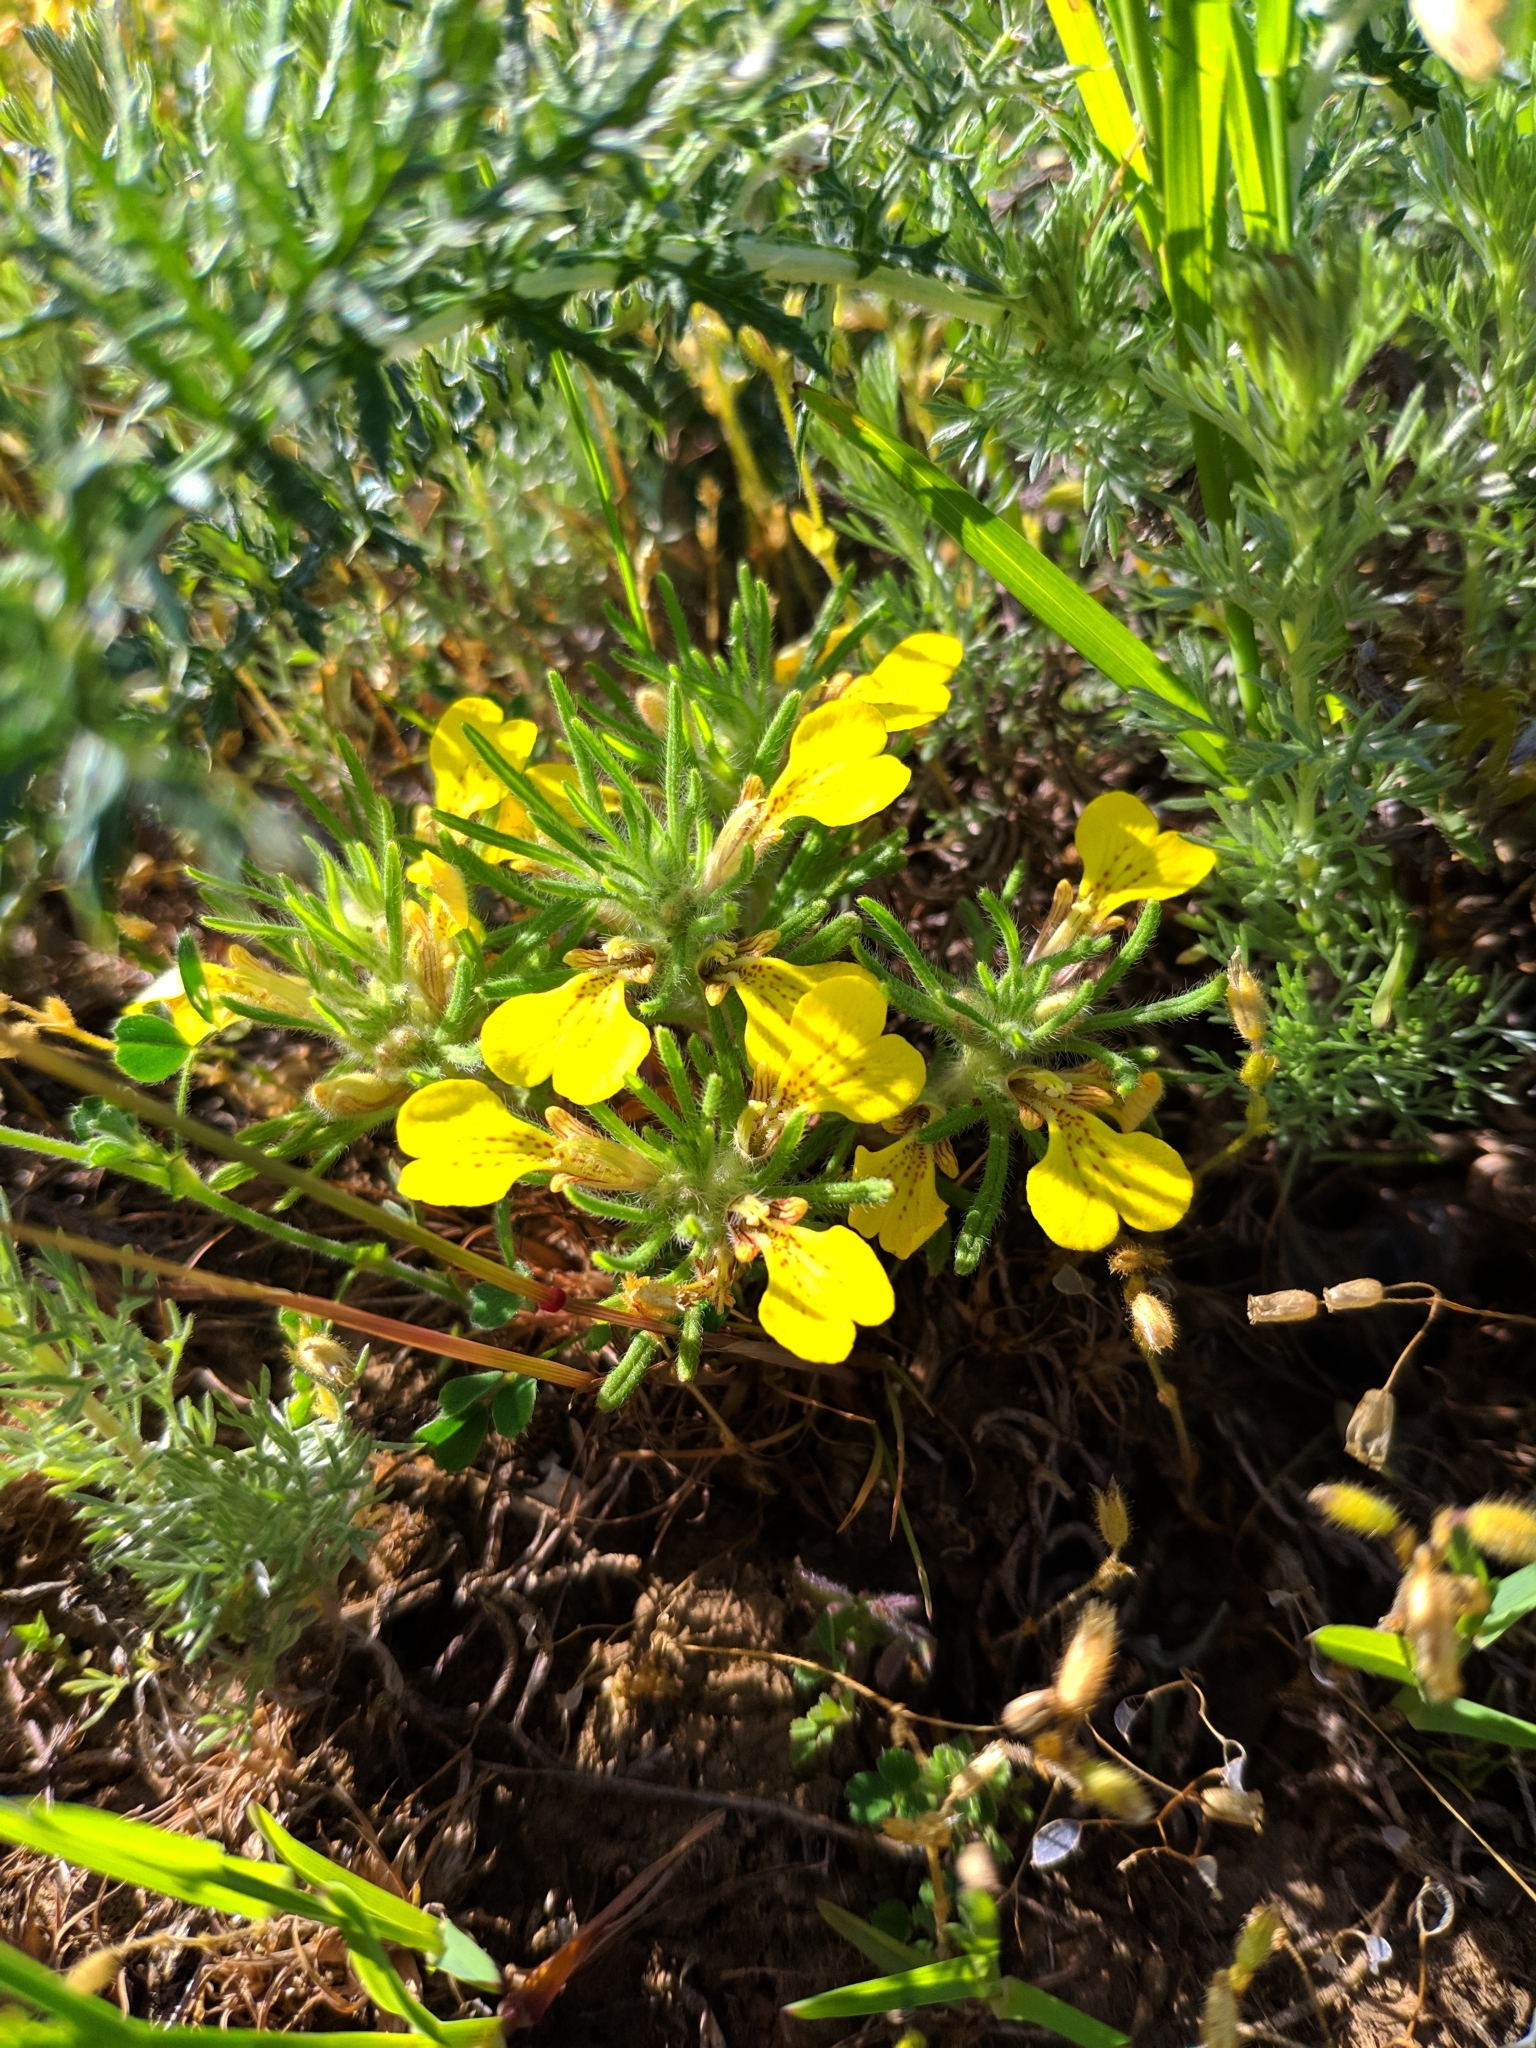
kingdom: Plantae
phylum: Tracheophyta
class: Magnoliopsida
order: Lamiales
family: Lamiaceae
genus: Ajuga
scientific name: Ajuga chamaepitys
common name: Ground-pine
